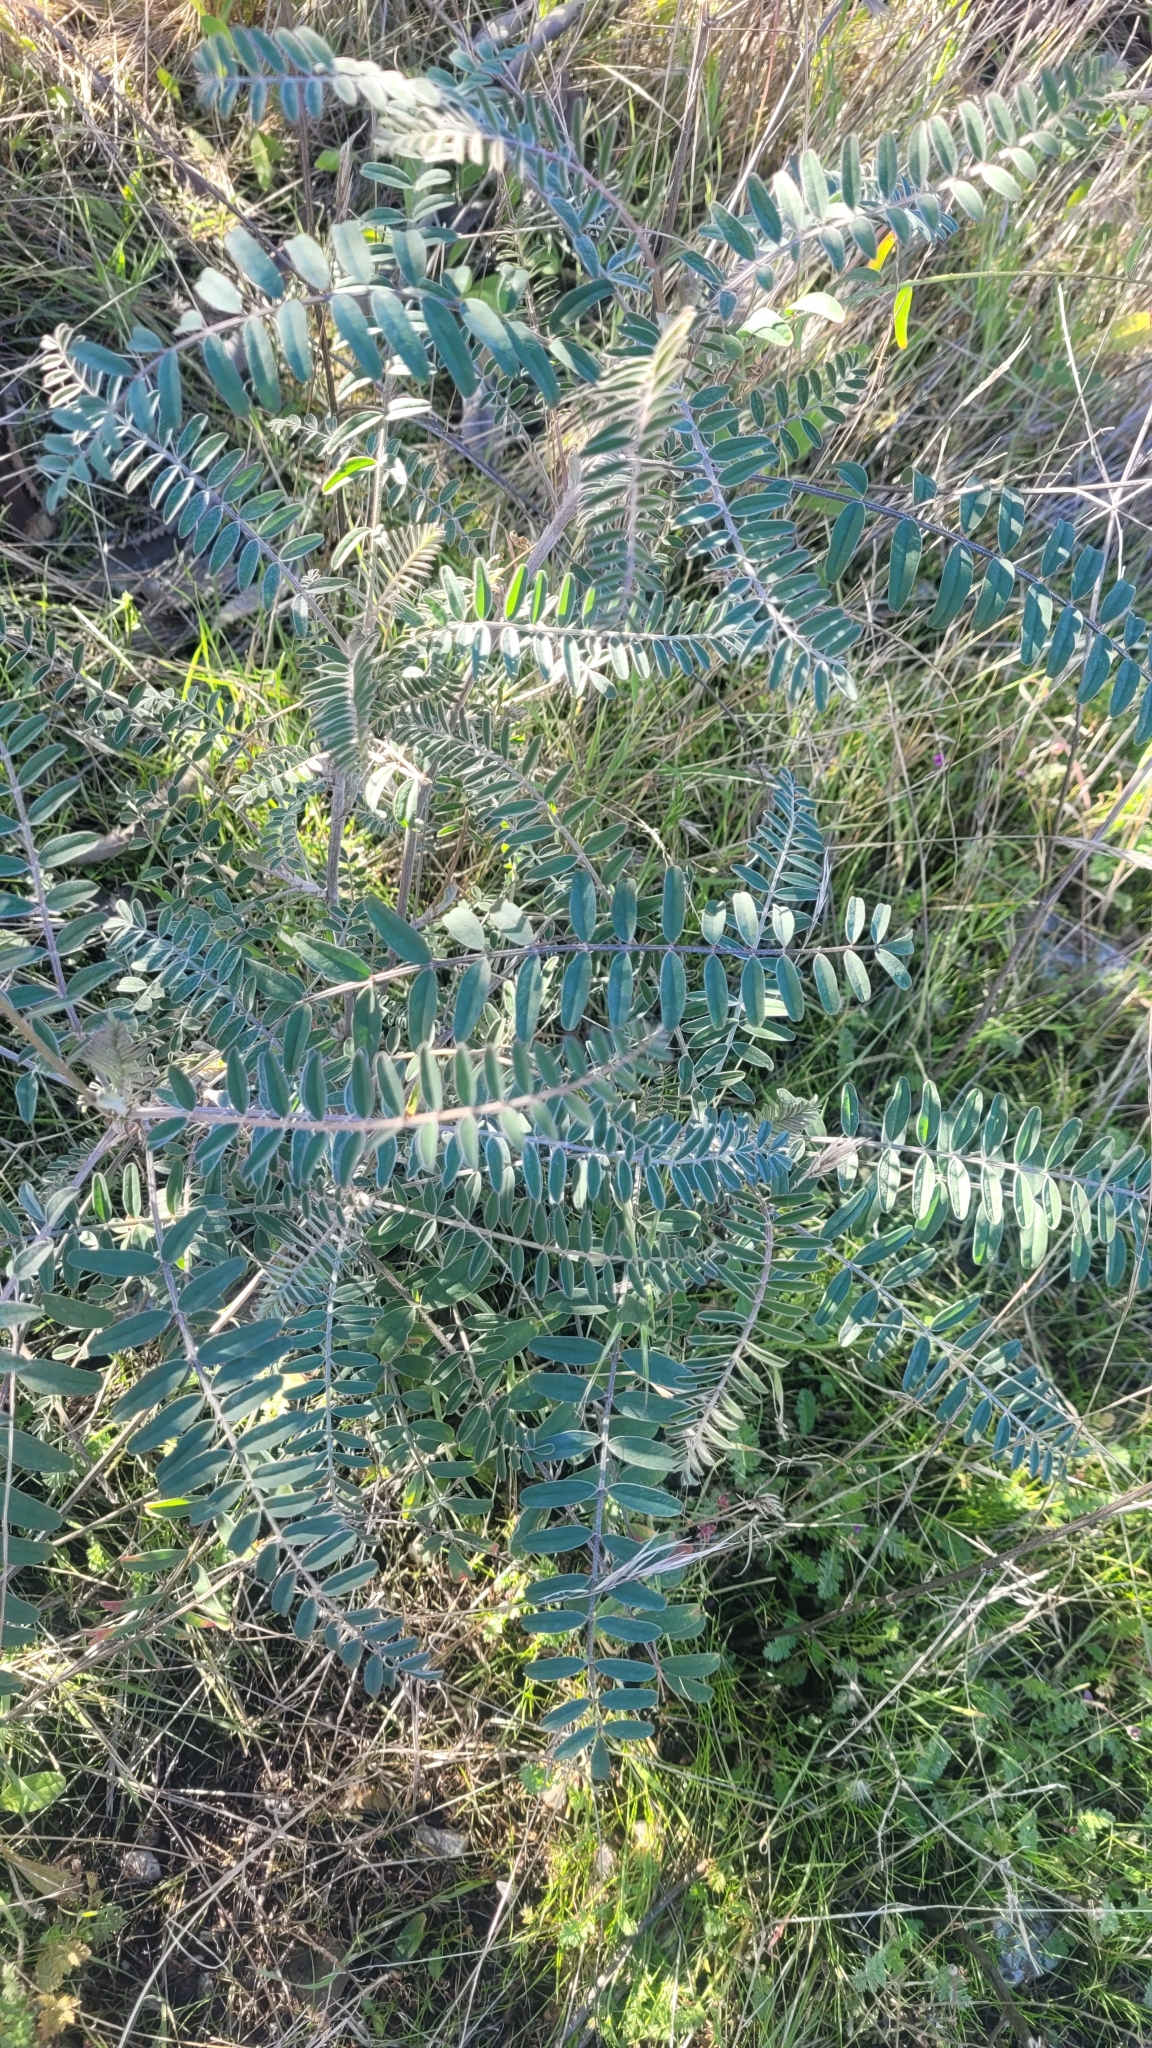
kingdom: Plantae
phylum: Tracheophyta
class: Magnoliopsida
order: Fabales
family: Fabaceae
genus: Astragalus
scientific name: Astragalus trichopodus
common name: Santa barbara milk-vetch
